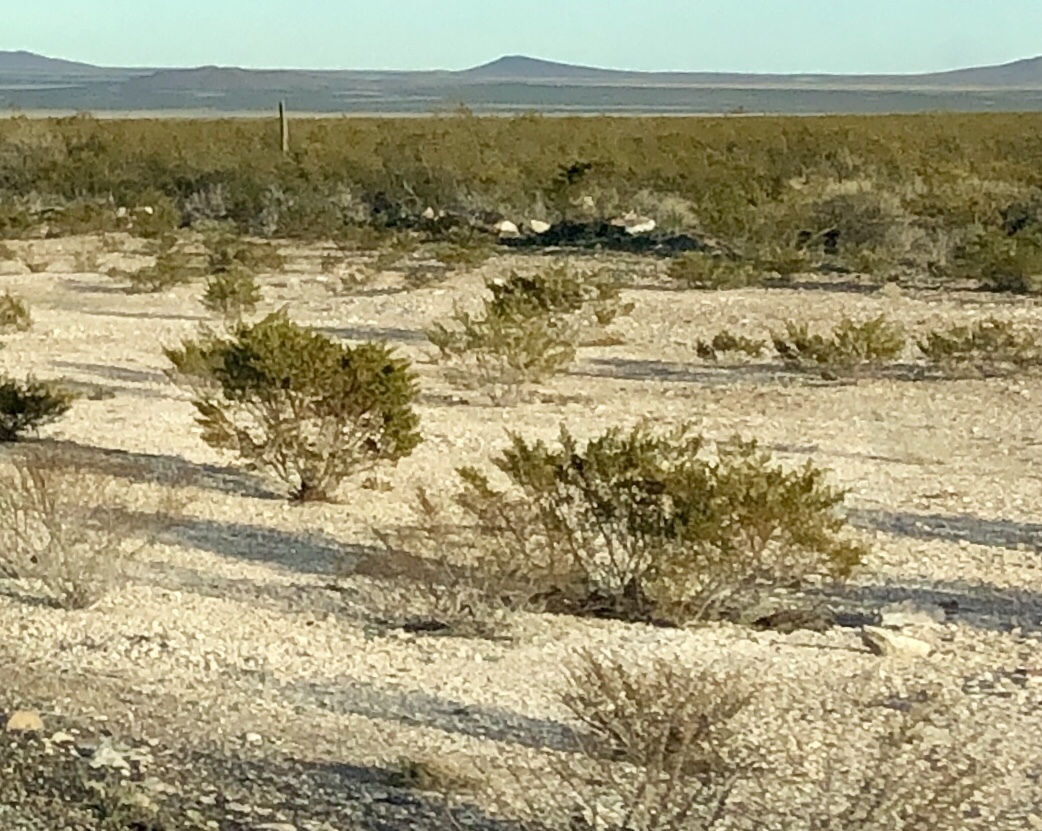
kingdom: Plantae
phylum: Tracheophyta
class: Magnoliopsida
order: Zygophyllales
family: Zygophyllaceae
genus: Larrea
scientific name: Larrea tridentata
